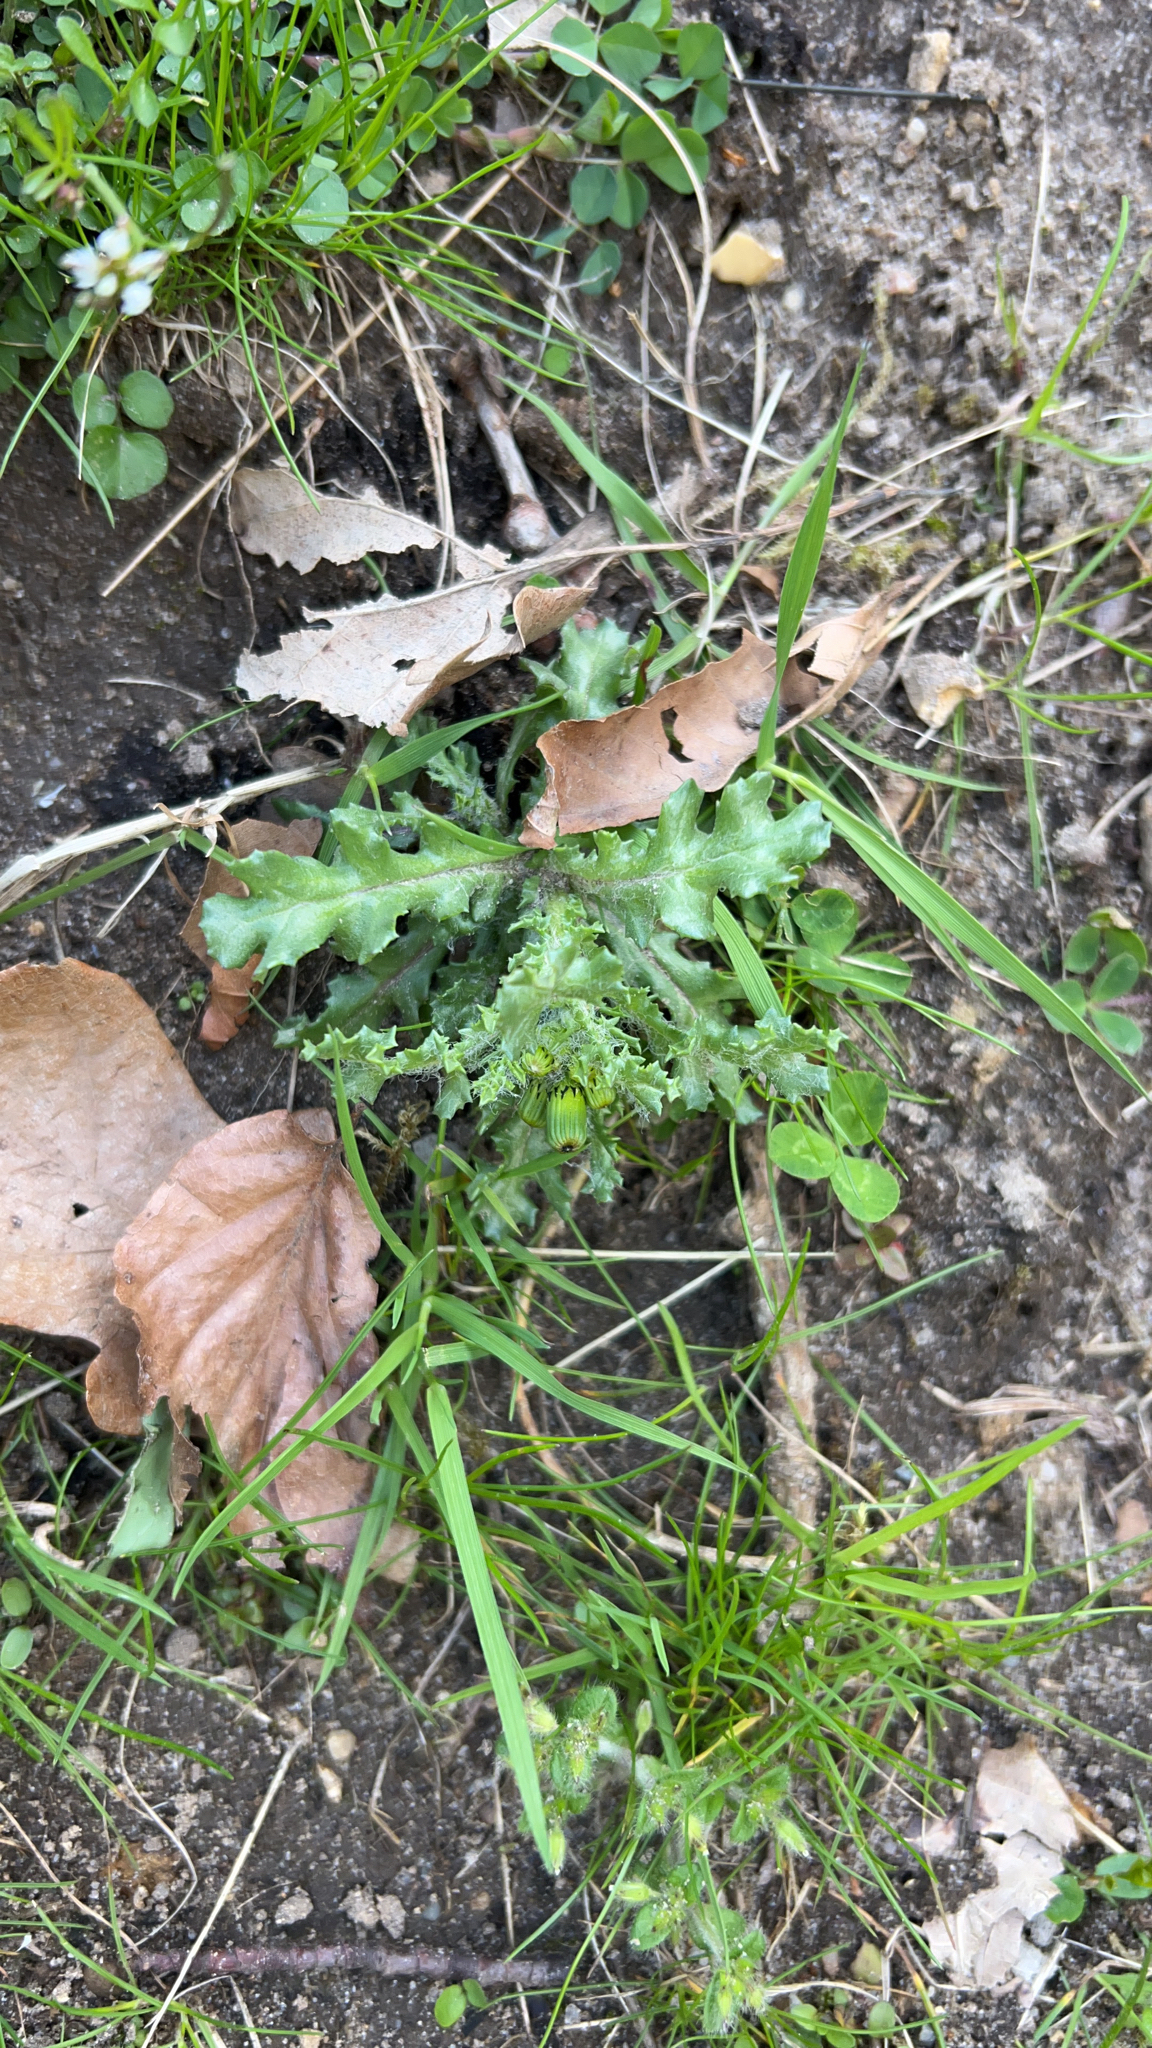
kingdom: Plantae
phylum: Tracheophyta
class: Magnoliopsida
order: Asterales
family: Asteraceae
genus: Senecio
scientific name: Senecio vulgaris
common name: Old-man-in-the-spring
